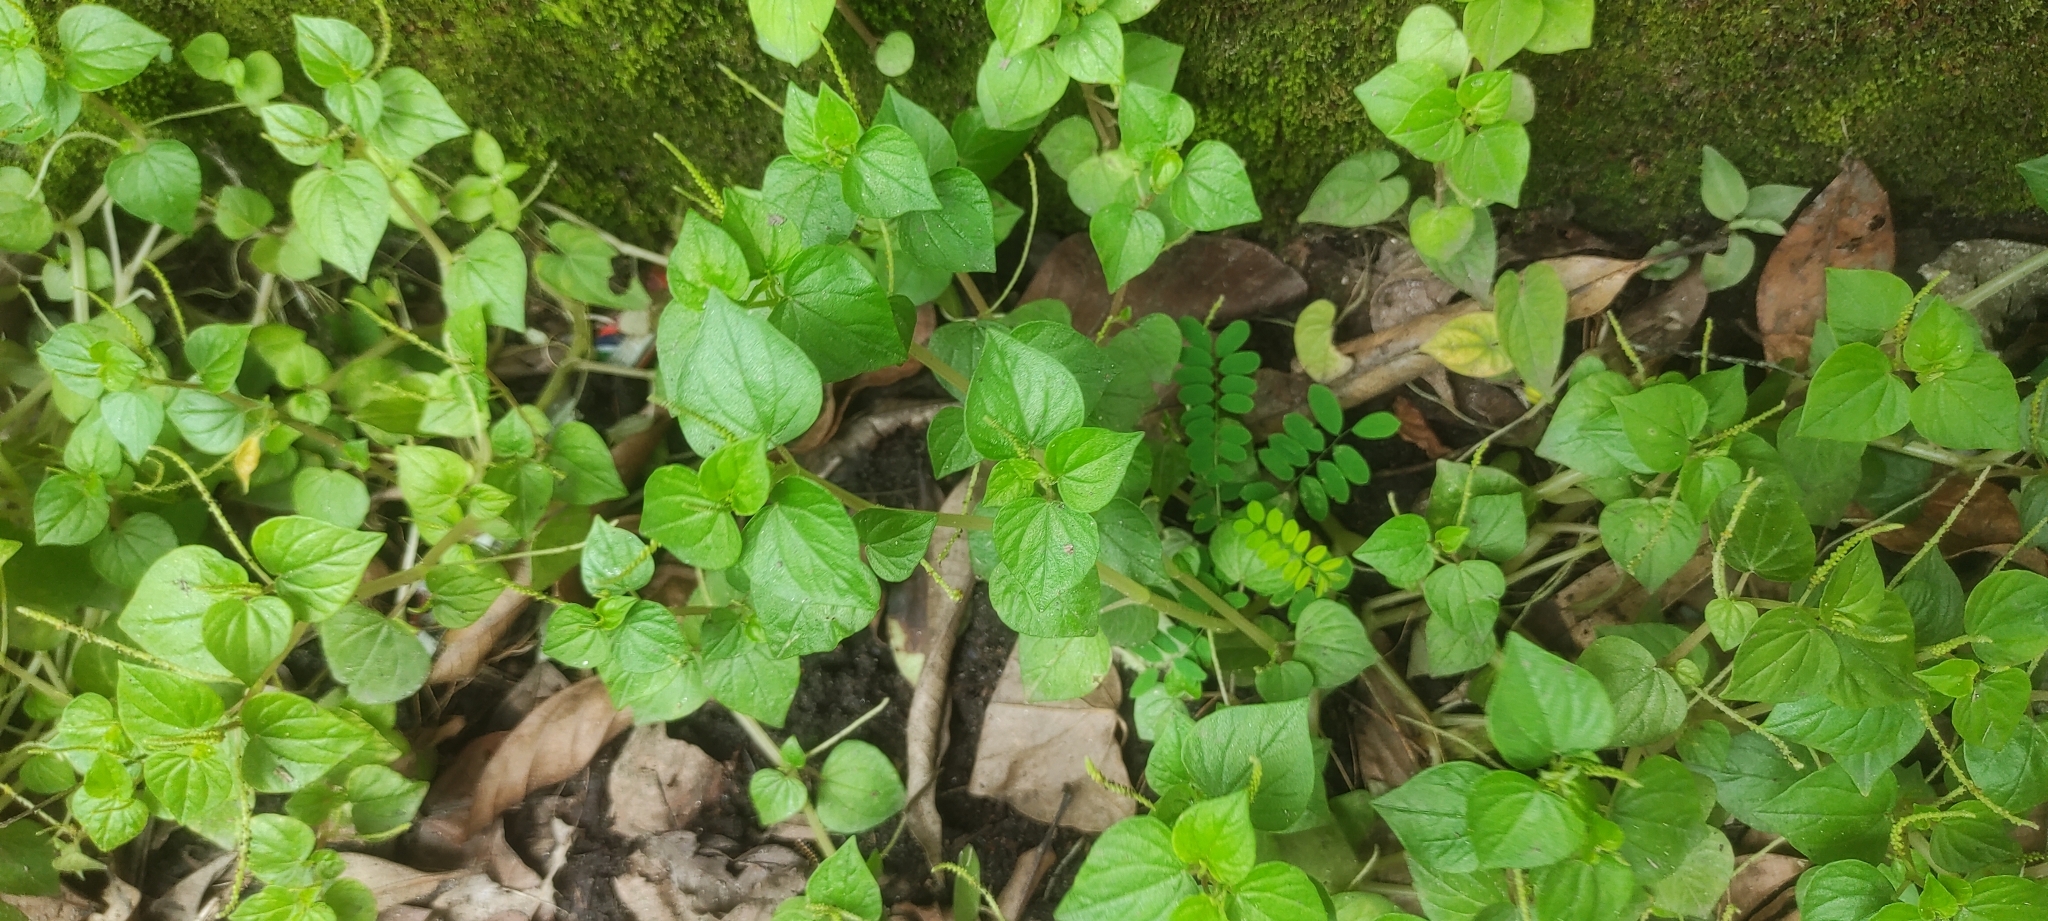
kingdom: Plantae
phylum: Tracheophyta
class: Magnoliopsida
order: Piperales
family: Piperaceae
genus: Peperomia
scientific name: Peperomia pellucida
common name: Man to man
